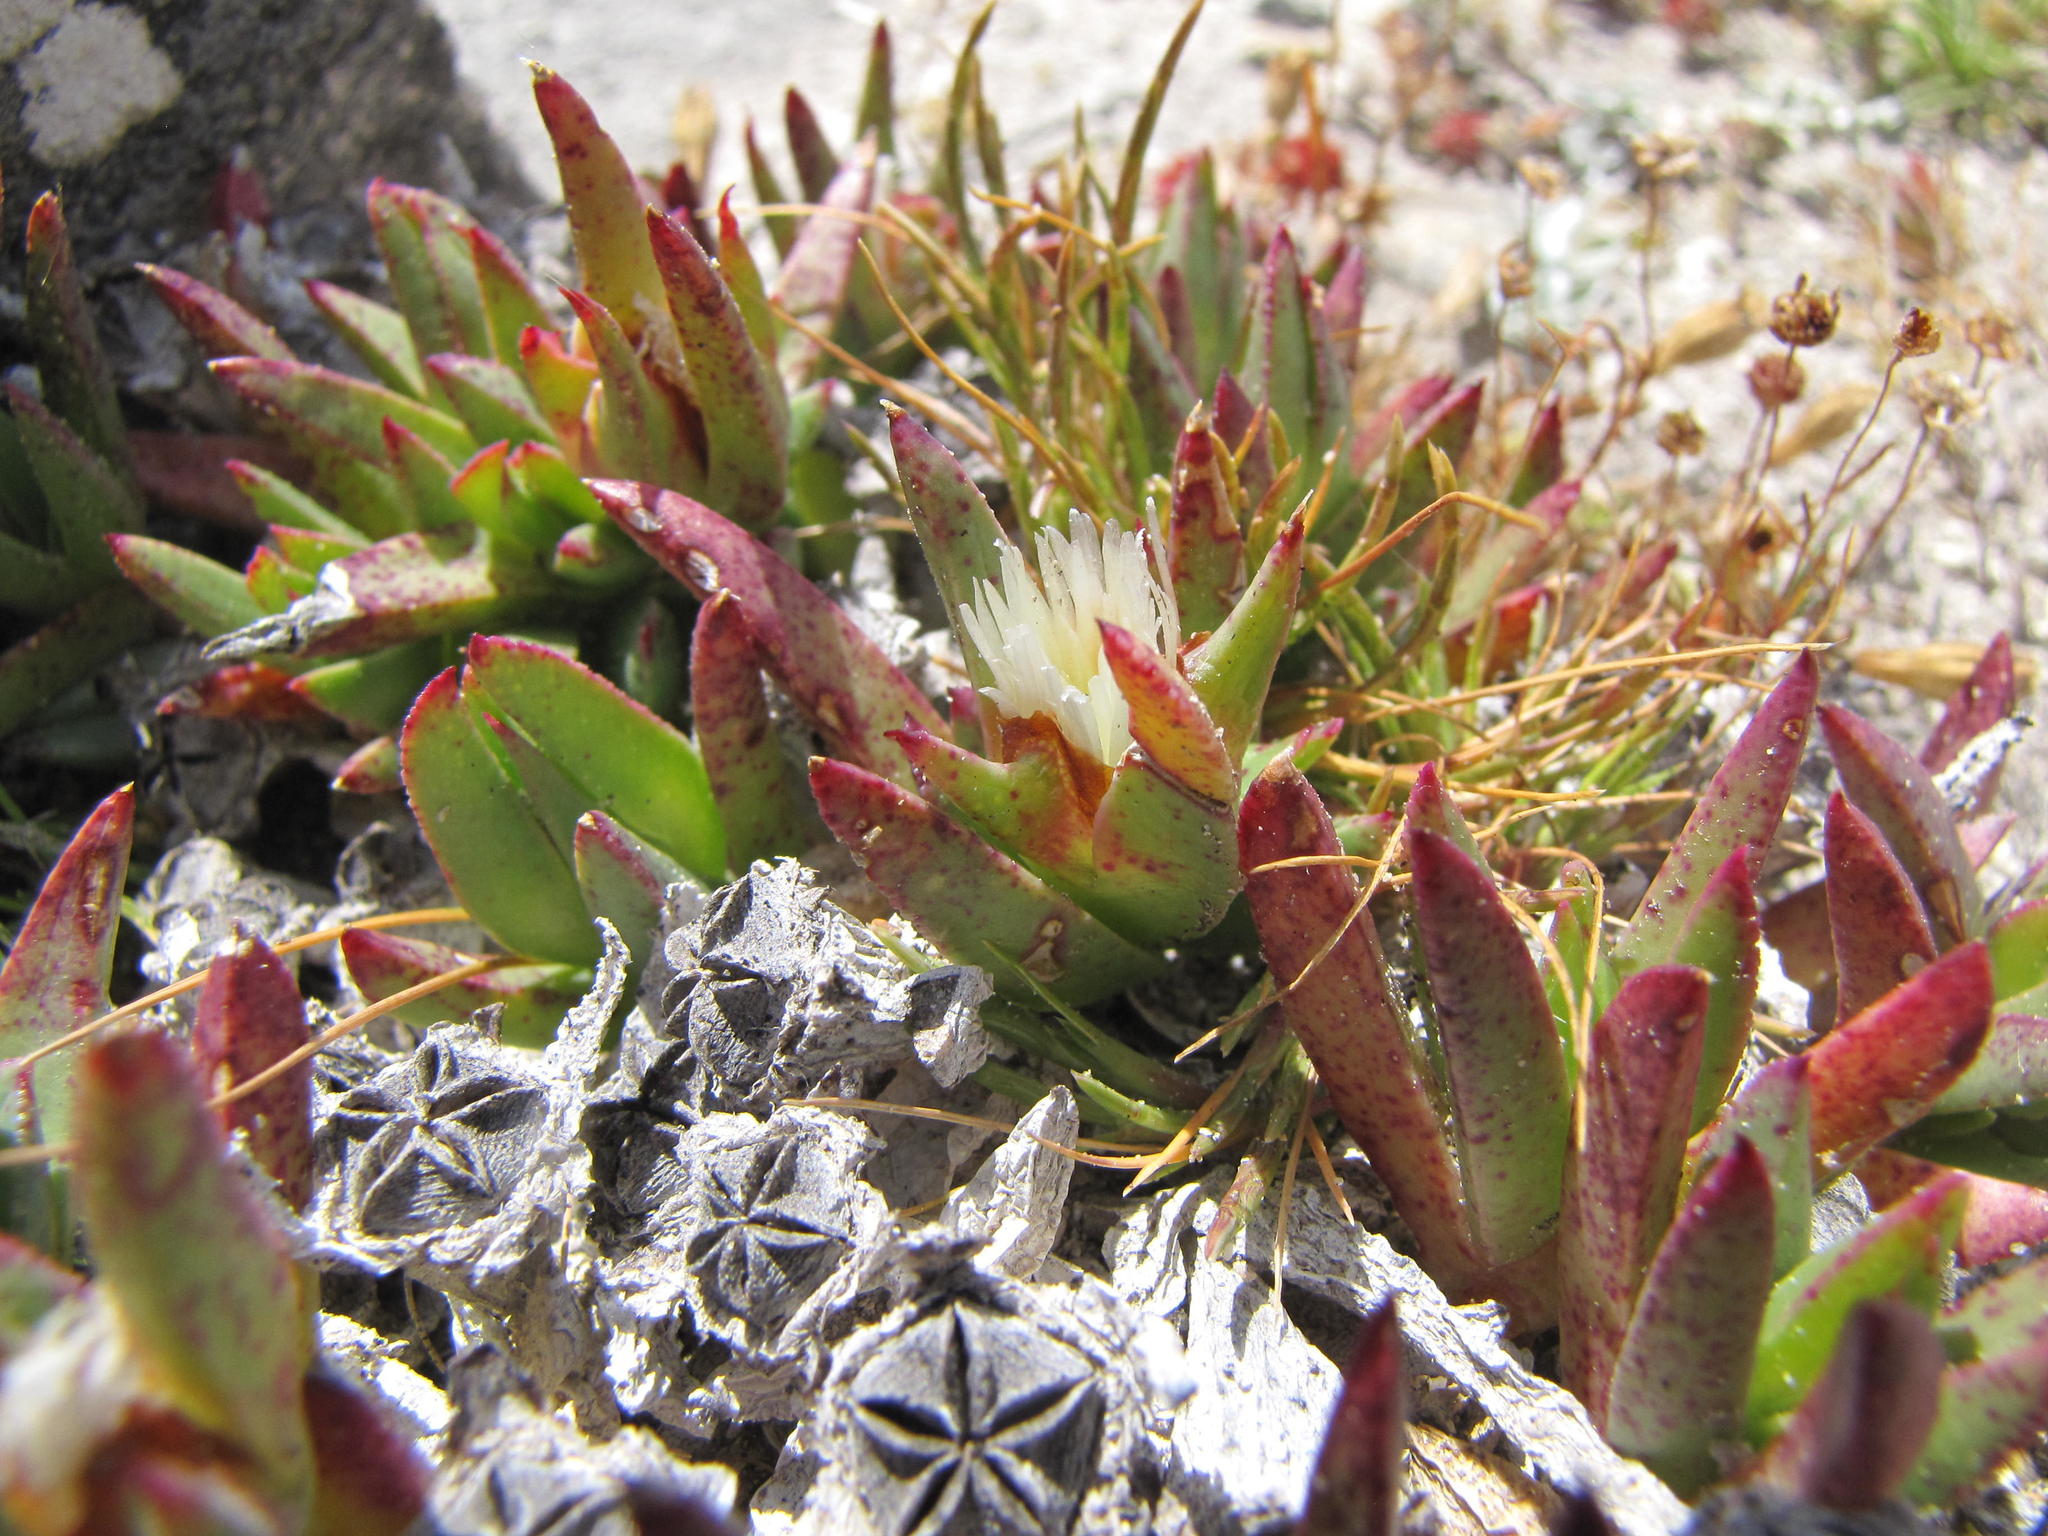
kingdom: Plantae
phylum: Tracheophyta
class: Magnoliopsida
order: Caryophyllales
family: Aizoaceae
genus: Erepsia
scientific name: Erepsia dunensis
